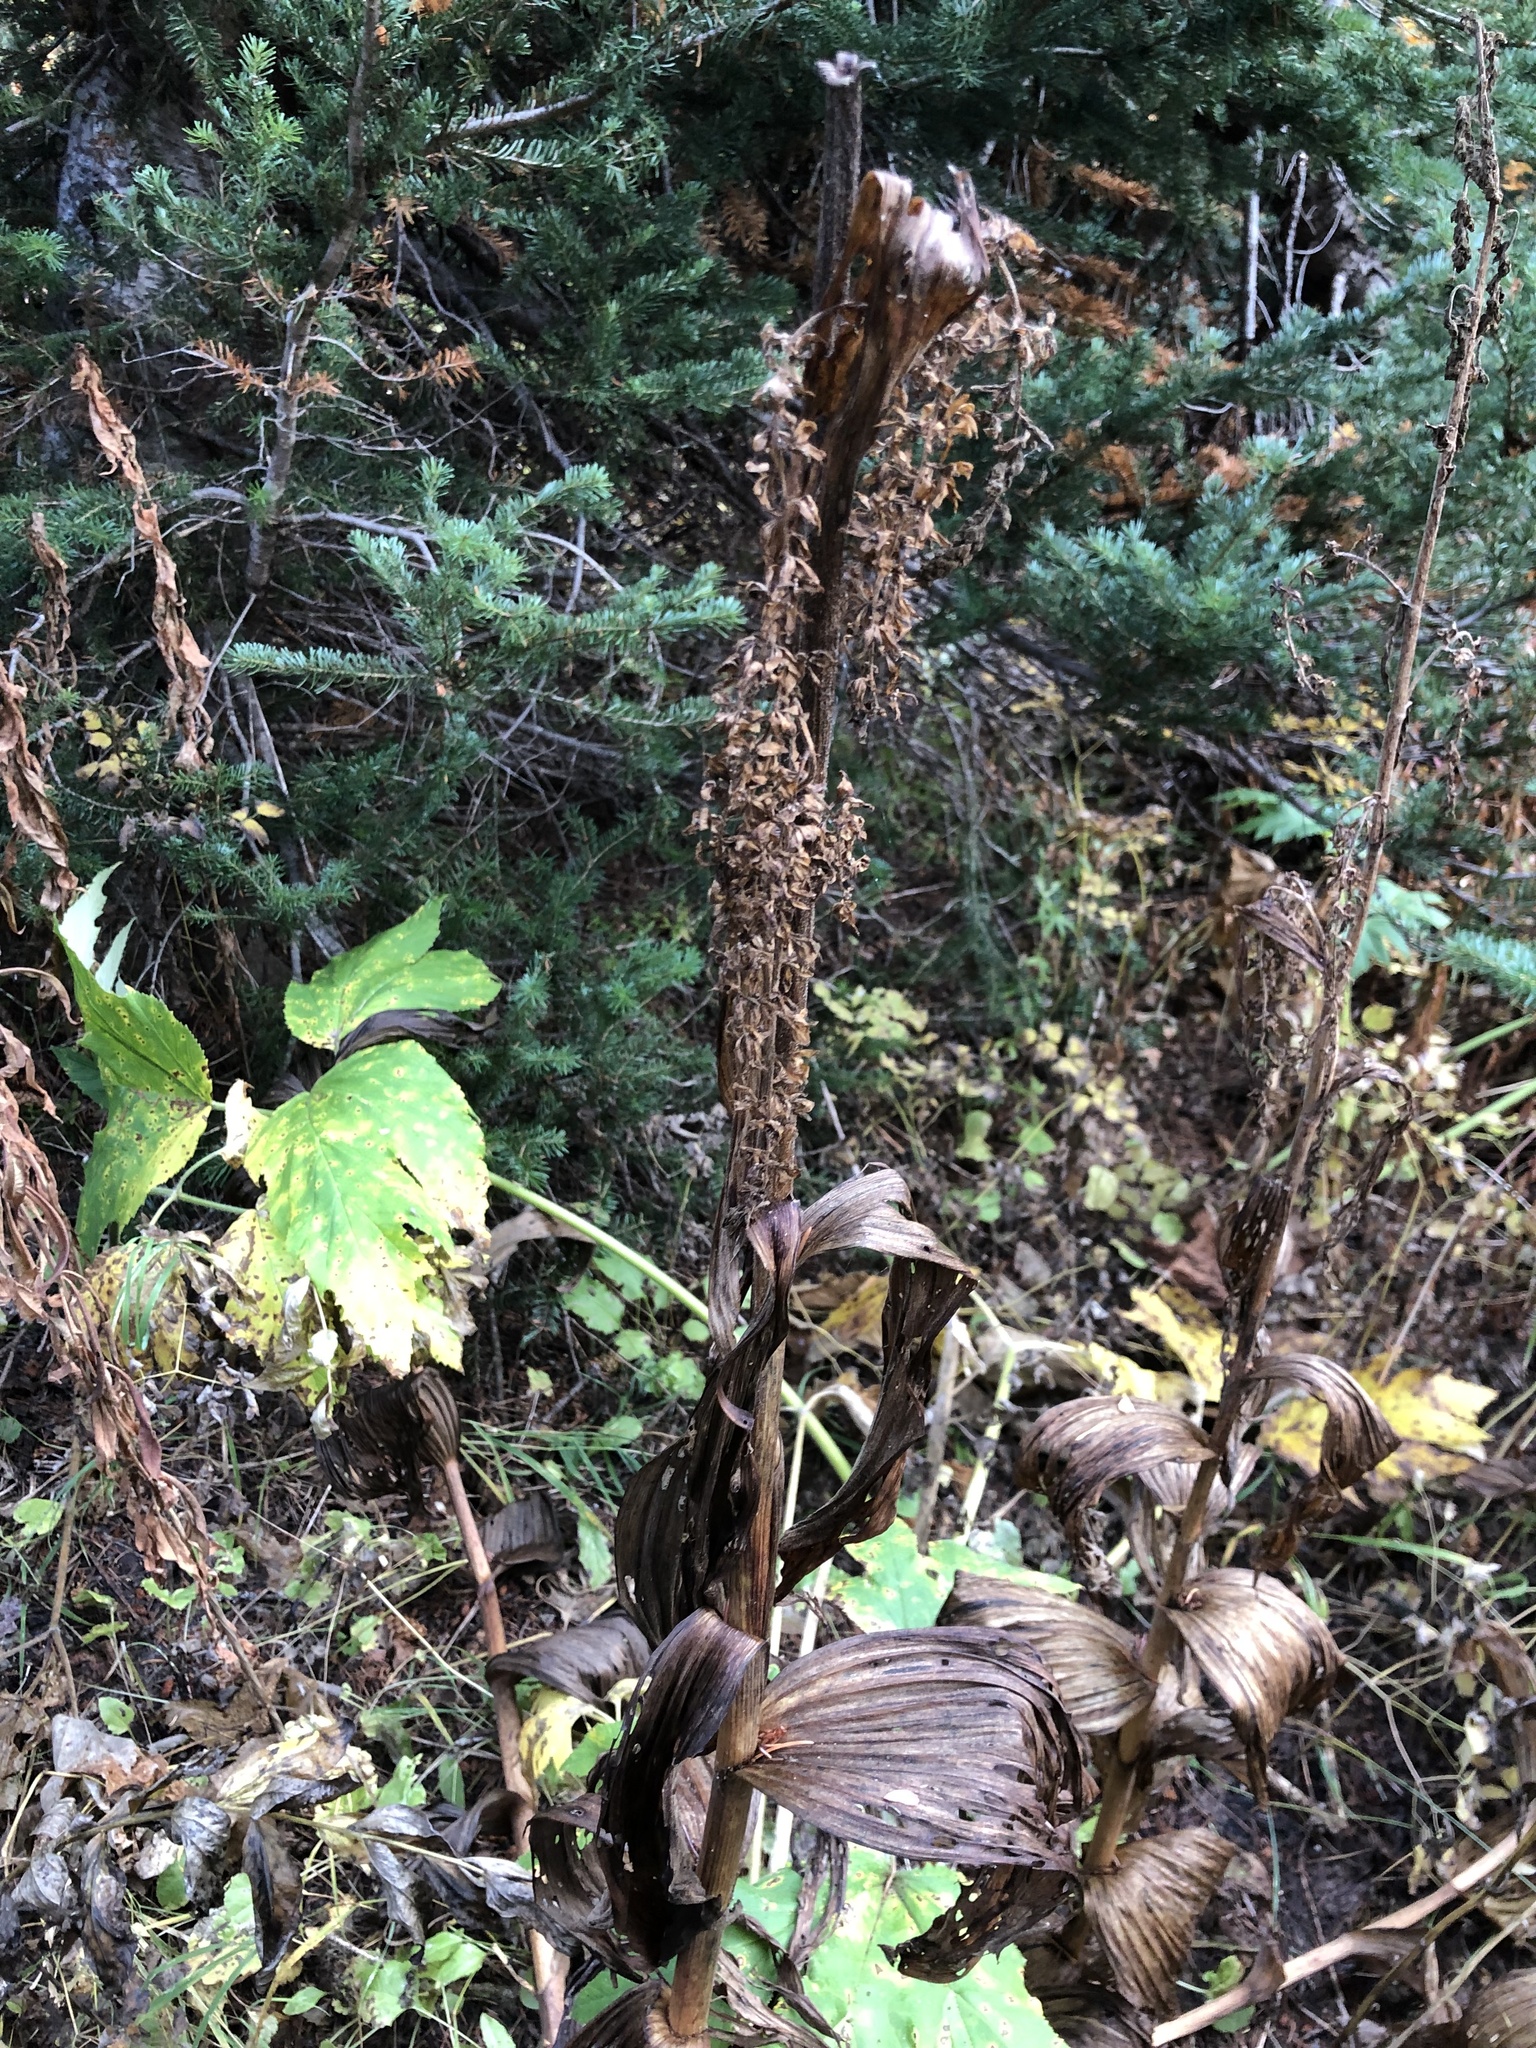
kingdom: Plantae
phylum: Tracheophyta
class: Liliopsida
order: Liliales
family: Melanthiaceae
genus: Veratrum
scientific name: Veratrum viride
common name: American false hellebore
